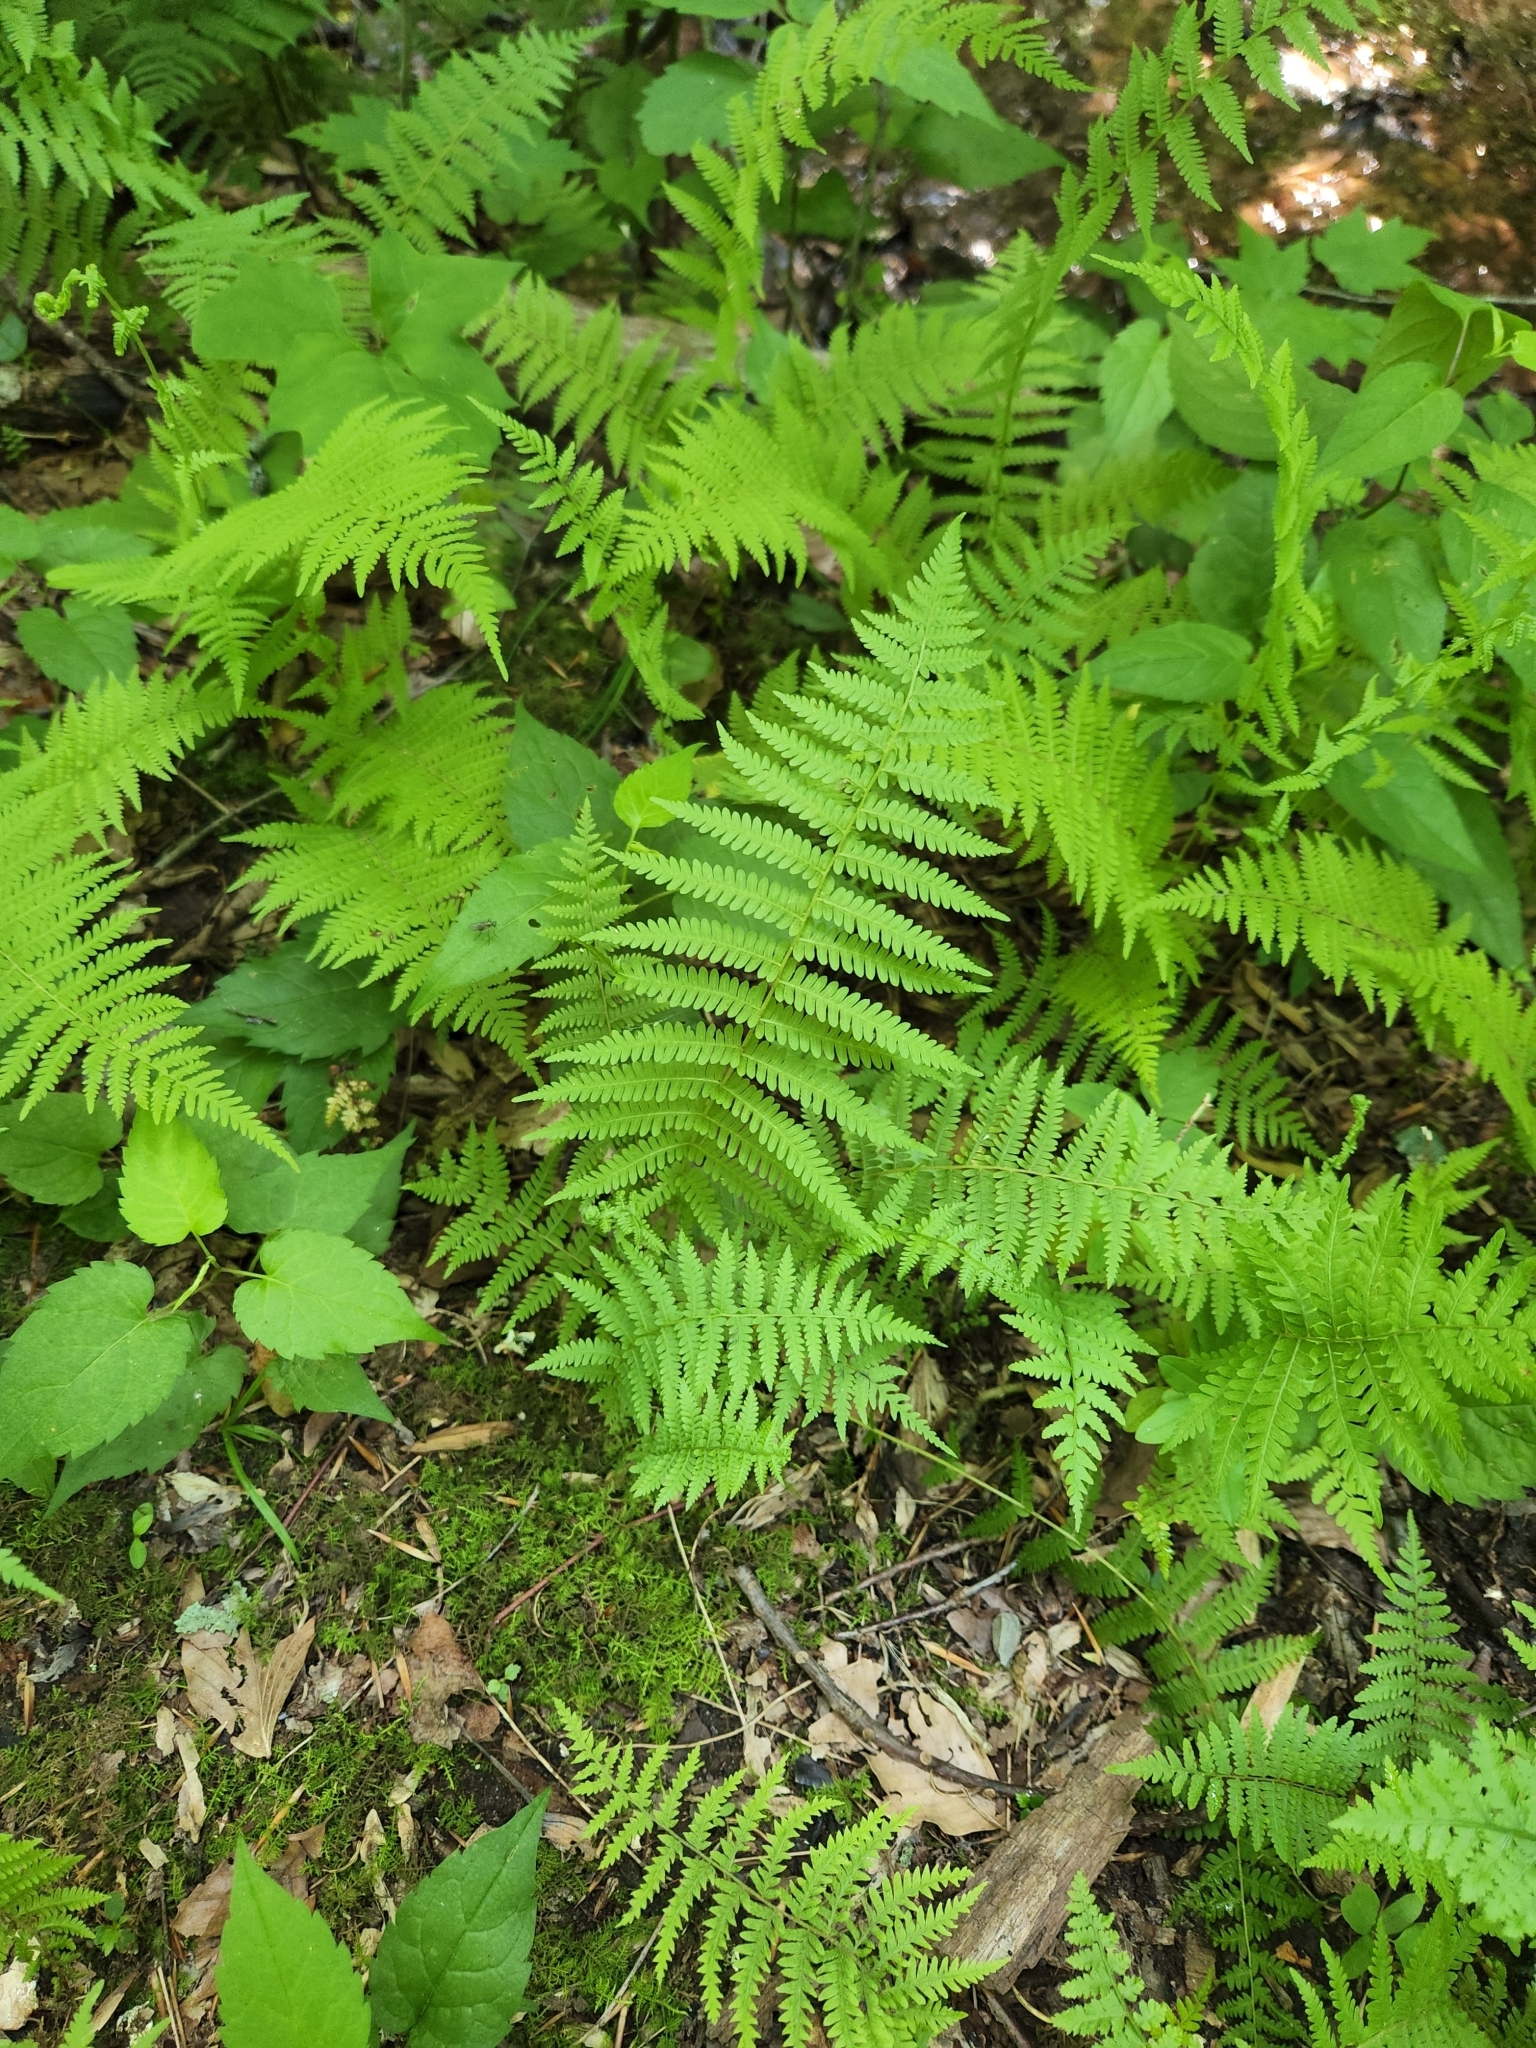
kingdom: Plantae
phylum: Tracheophyta
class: Polypodiopsida
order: Polypodiales
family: Thelypteridaceae
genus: Amauropelta
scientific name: Amauropelta noveboracensis
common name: New york fern
